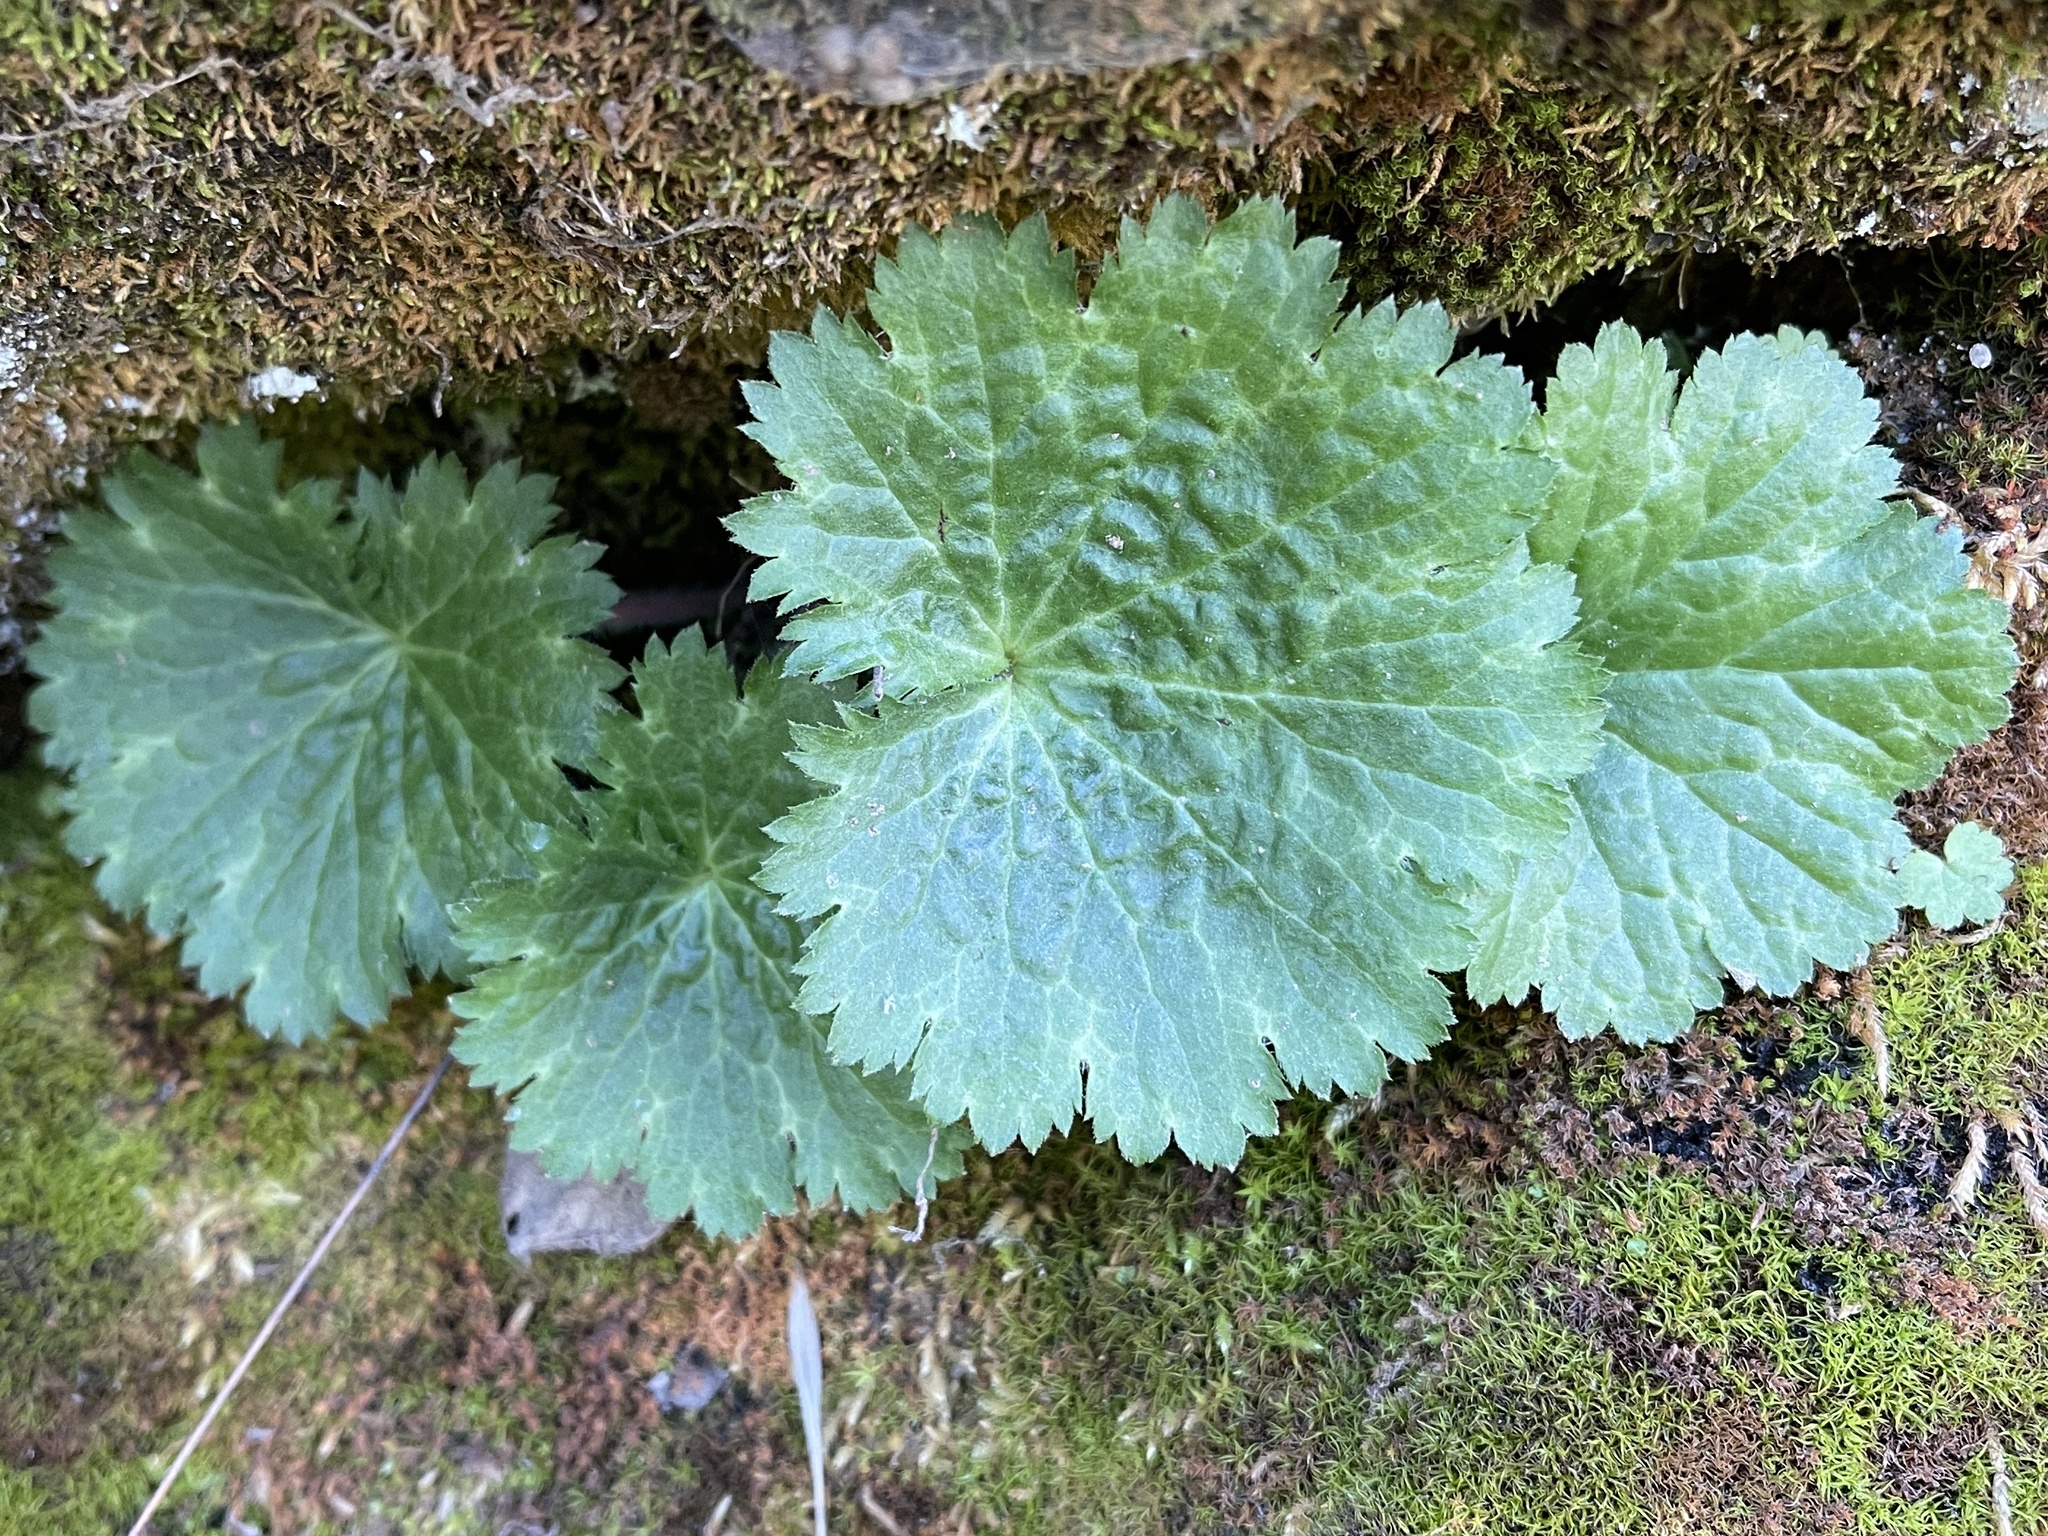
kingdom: Plantae
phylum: Tracheophyta
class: Magnoliopsida
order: Saxifragales
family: Saxifragaceae
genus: Jepsonia
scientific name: Jepsonia heterandra
